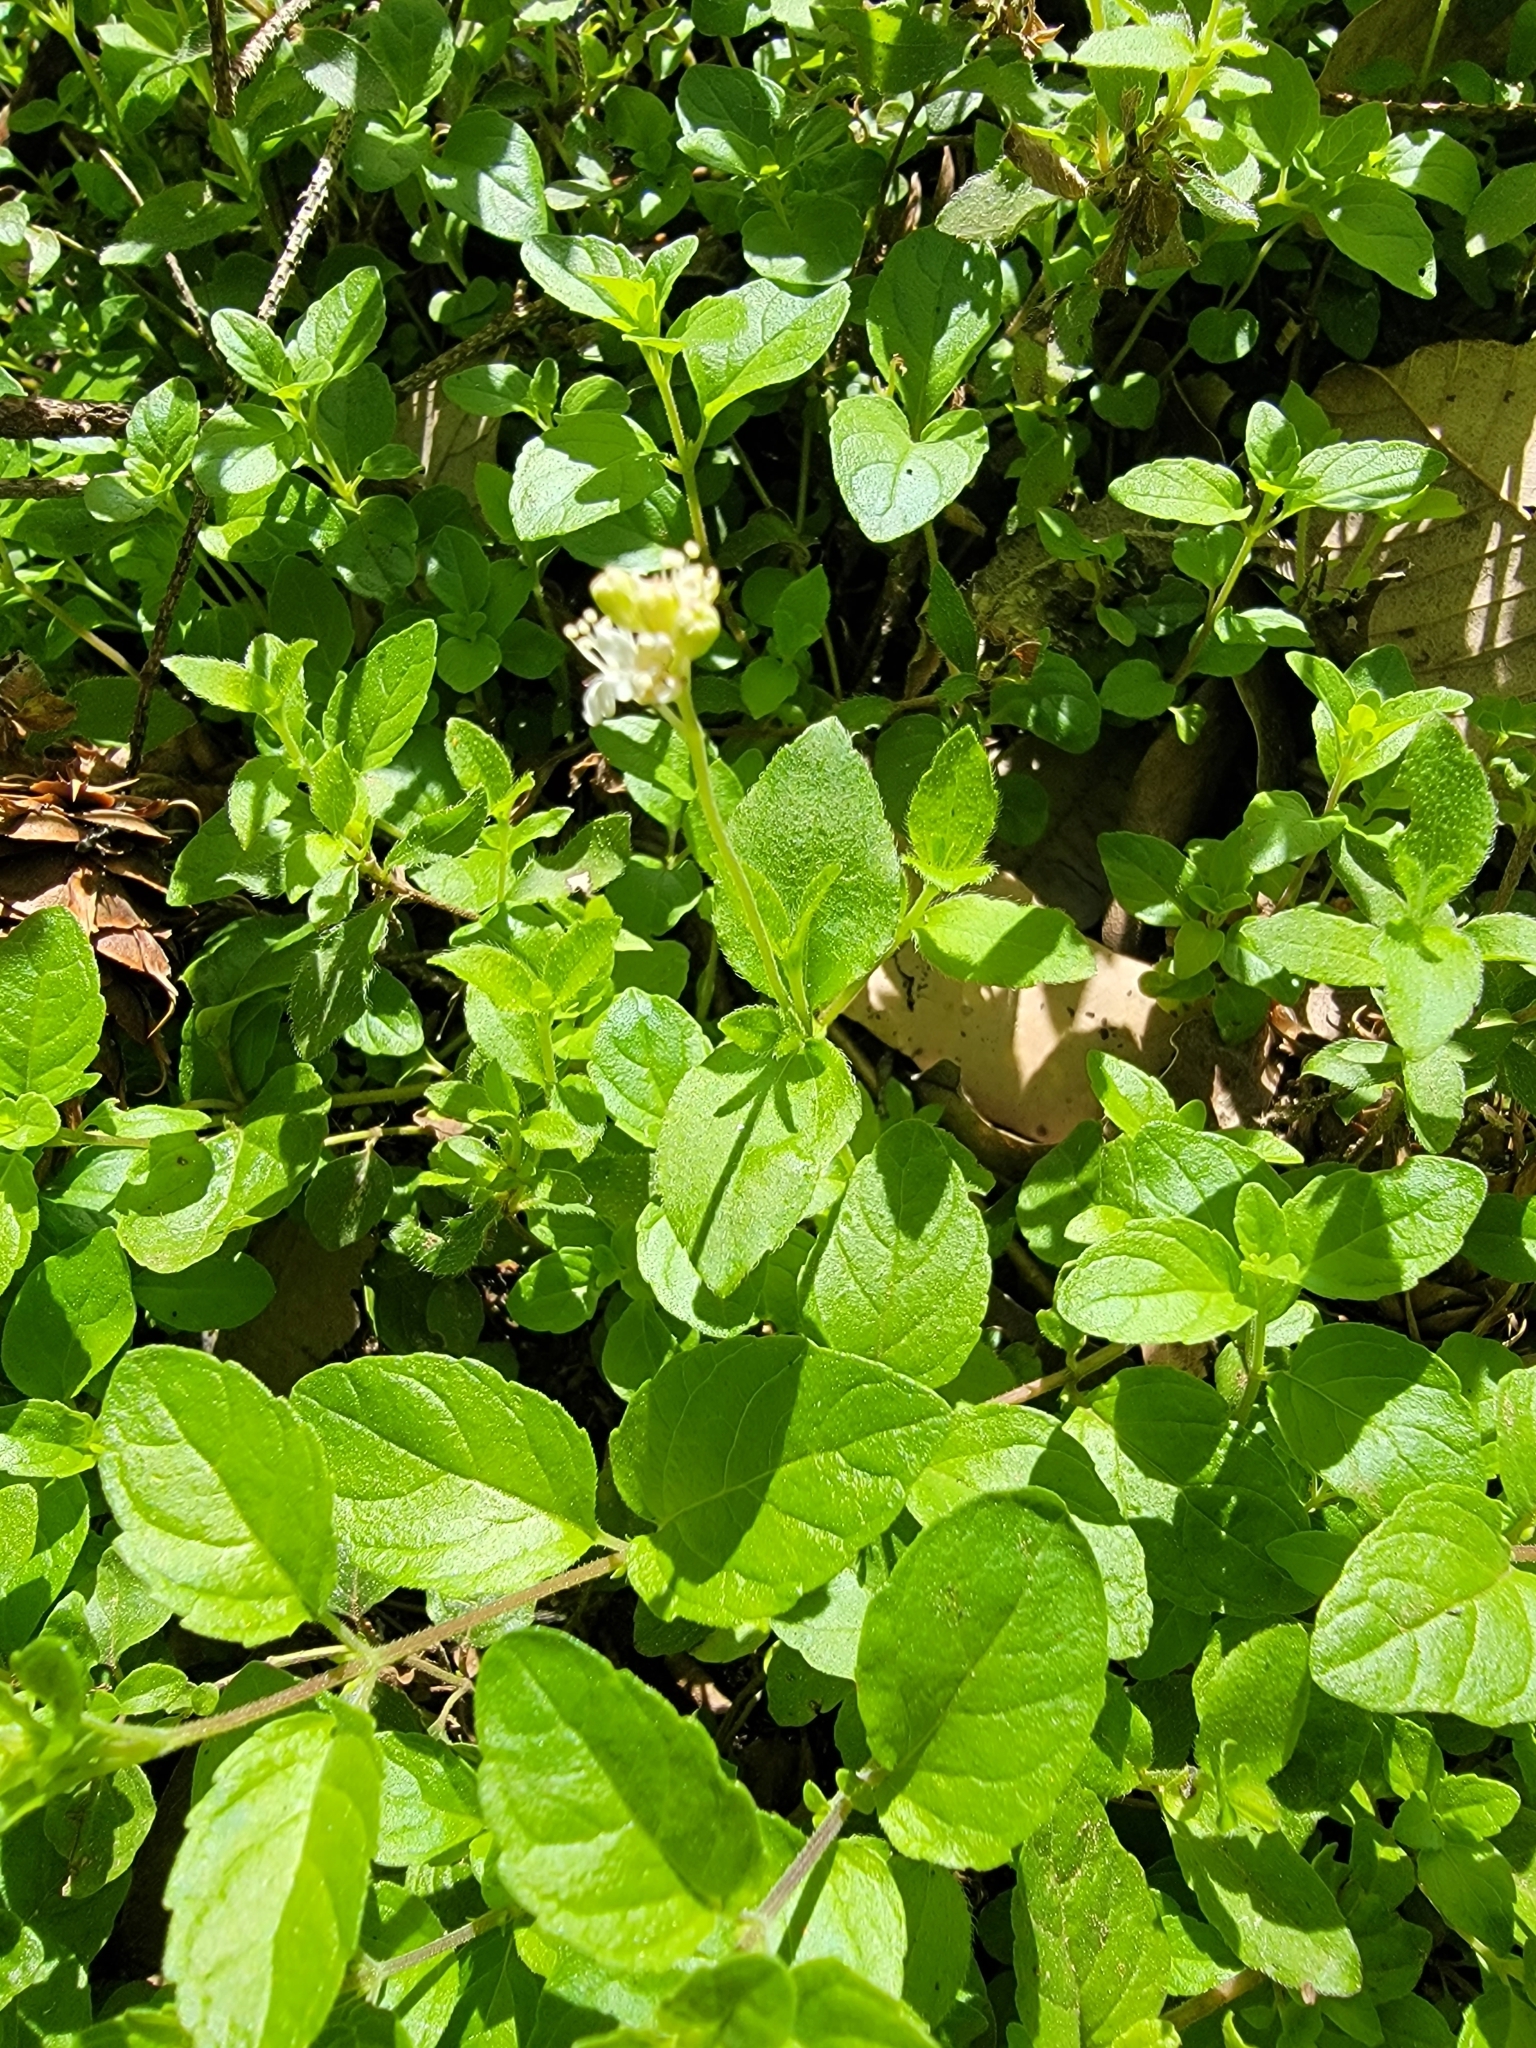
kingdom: Plantae
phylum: Tracheophyta
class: Magnoliopsida
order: Cornales
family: Hydrangeaceae
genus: Whipplea
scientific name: Whipplea modesta
